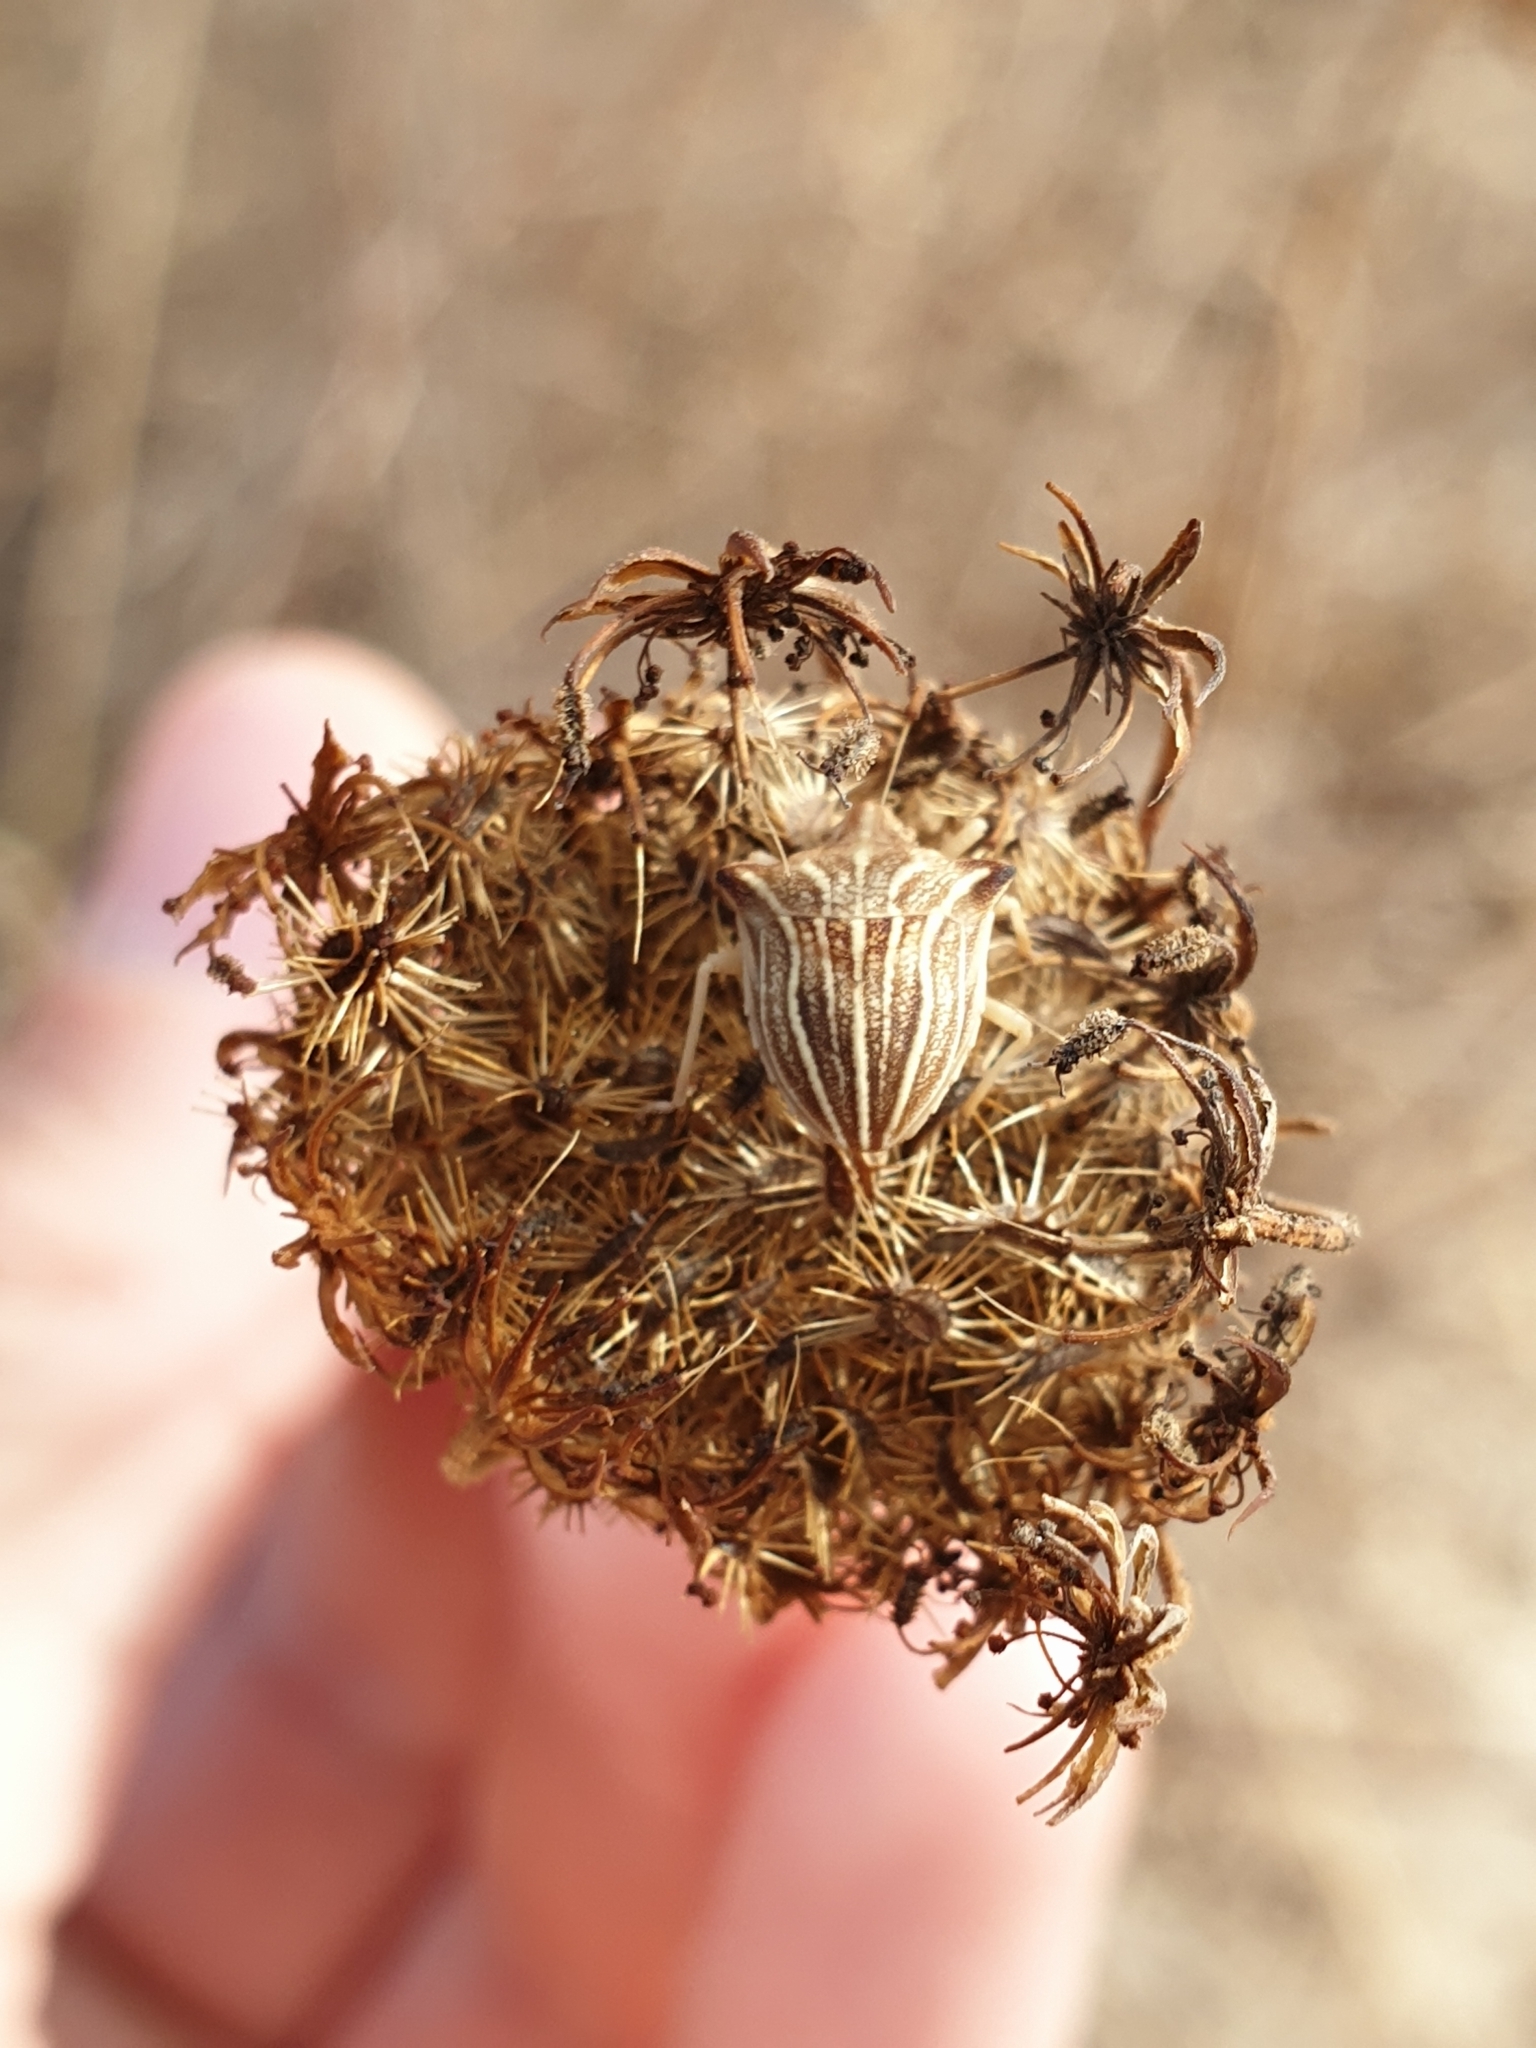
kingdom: Animalia
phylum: Arthropoda
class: Insecta
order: Hemiptera
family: Pentatomidae
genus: Ancyrosoma
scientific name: Ancyrosoma leucogrammes
